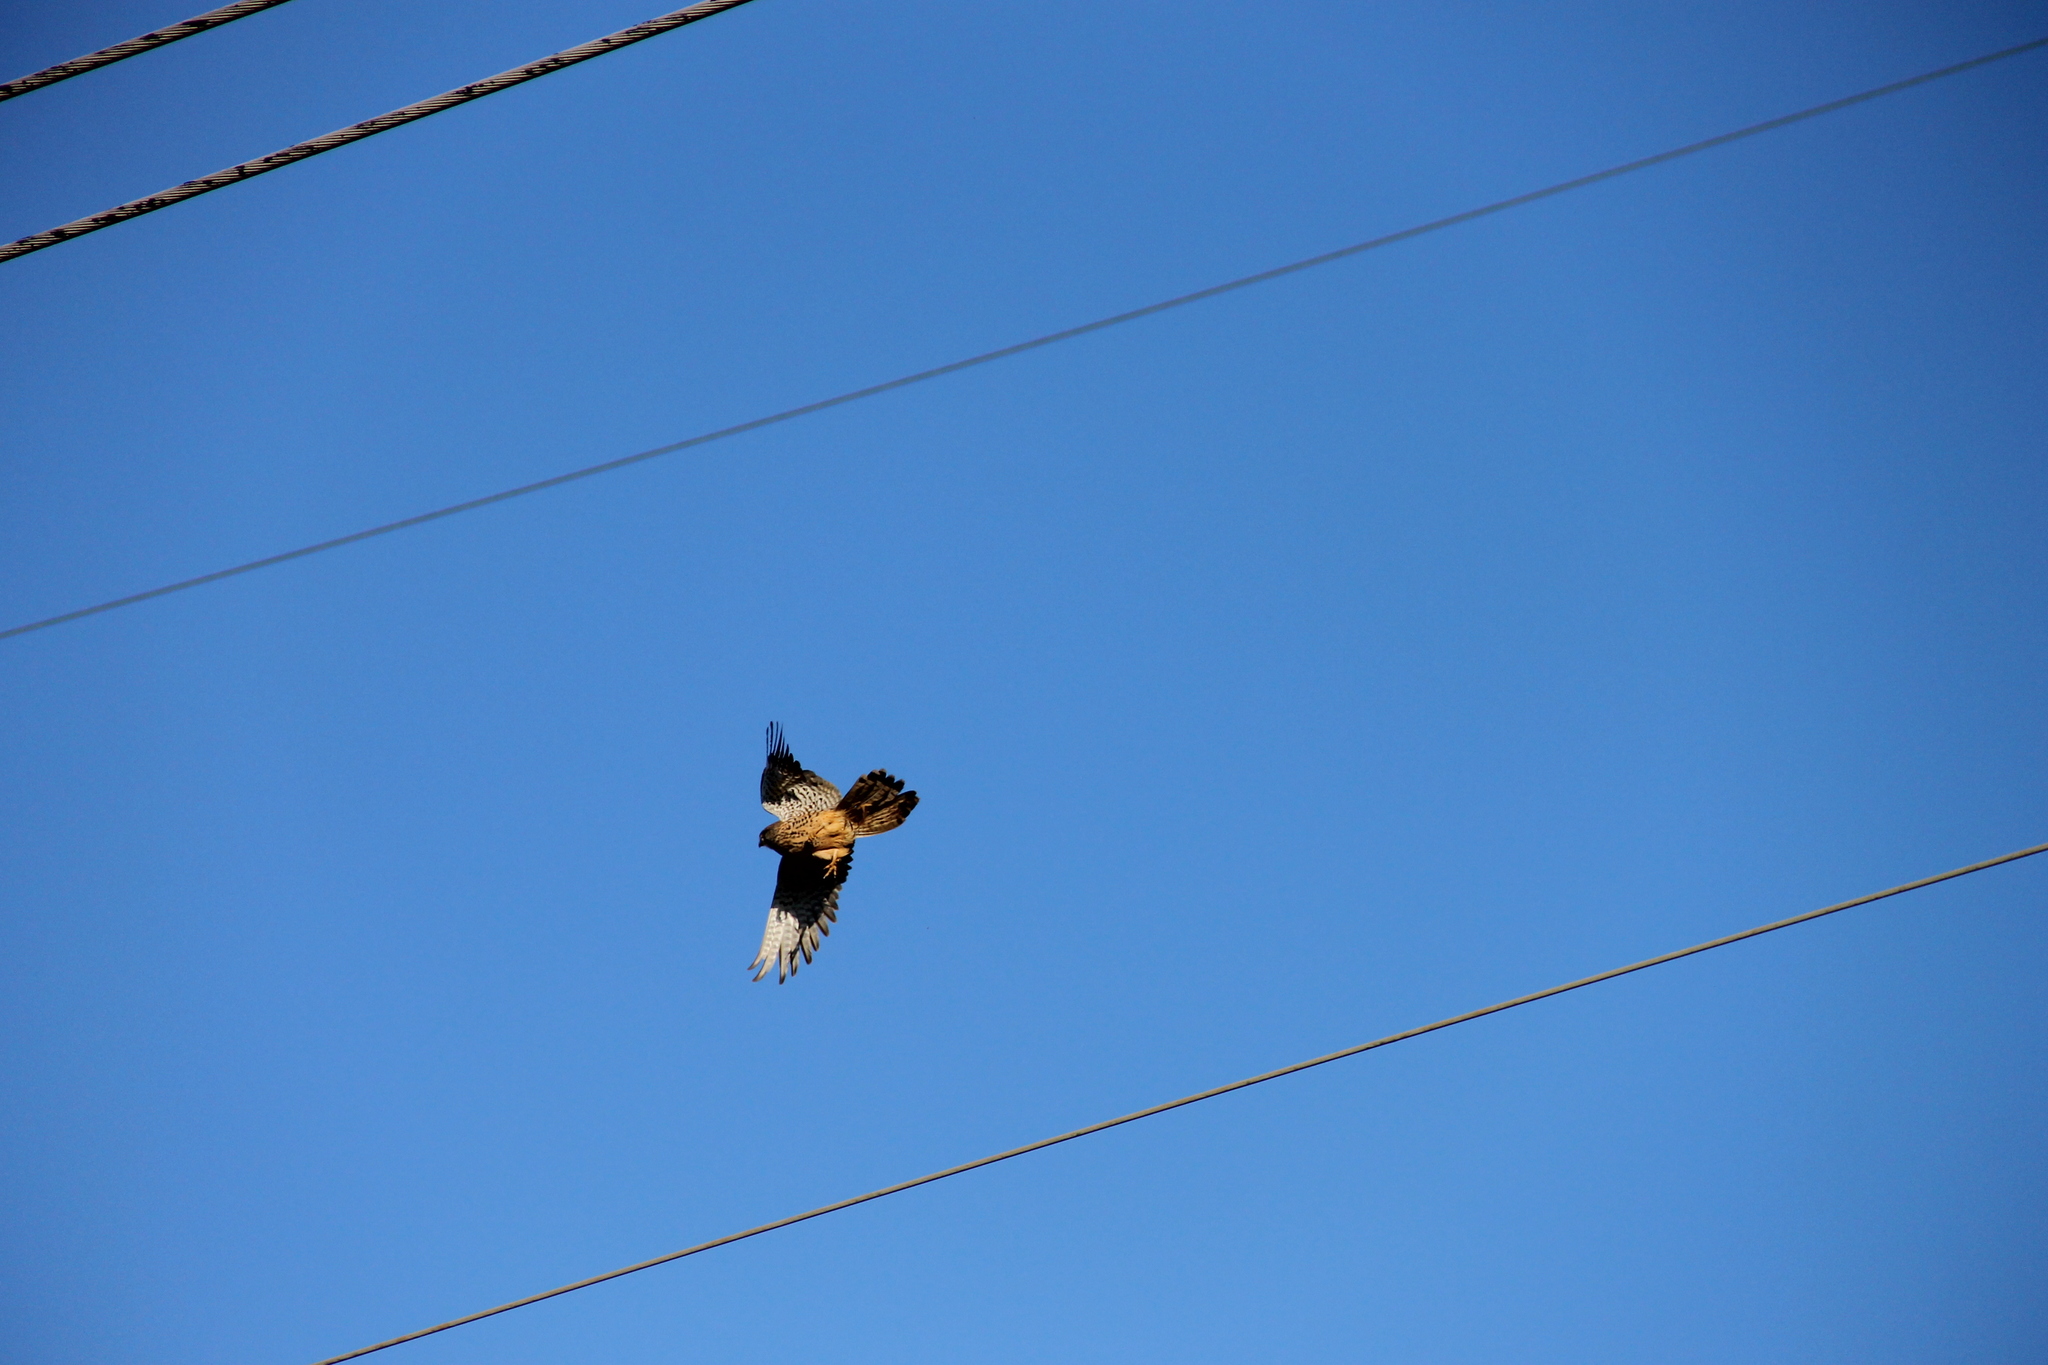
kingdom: Animalia
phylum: Chordata
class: Aves
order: Falconiformes
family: Falconidae
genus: Falco
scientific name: Falco tinnunculus
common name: Common kestrel
